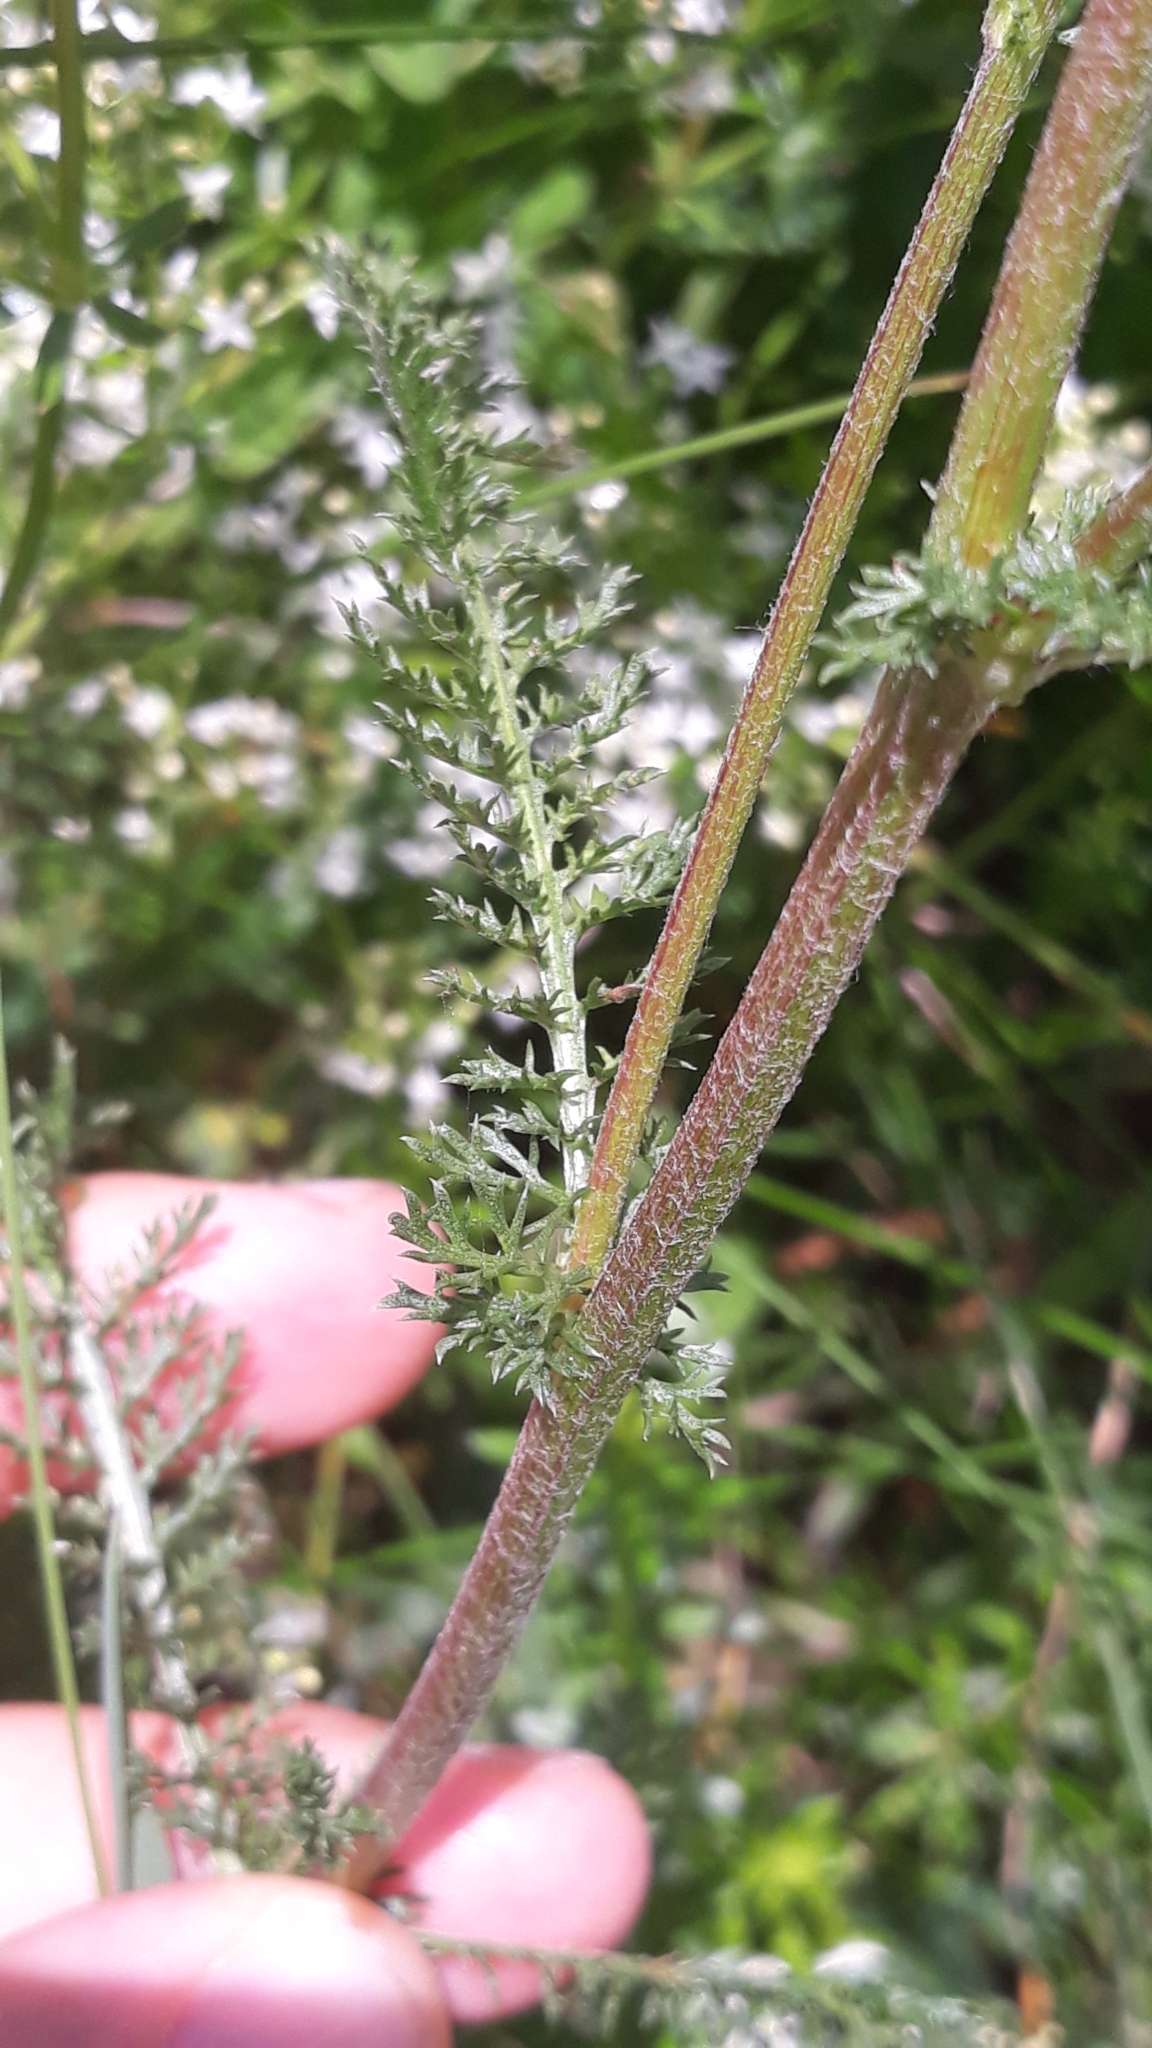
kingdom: Plantae
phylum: Tracheophyta
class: Magnoliopsida
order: Asterales
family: Asteraceae
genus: Achillea
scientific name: Achillea millefolium
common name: Yarrow
